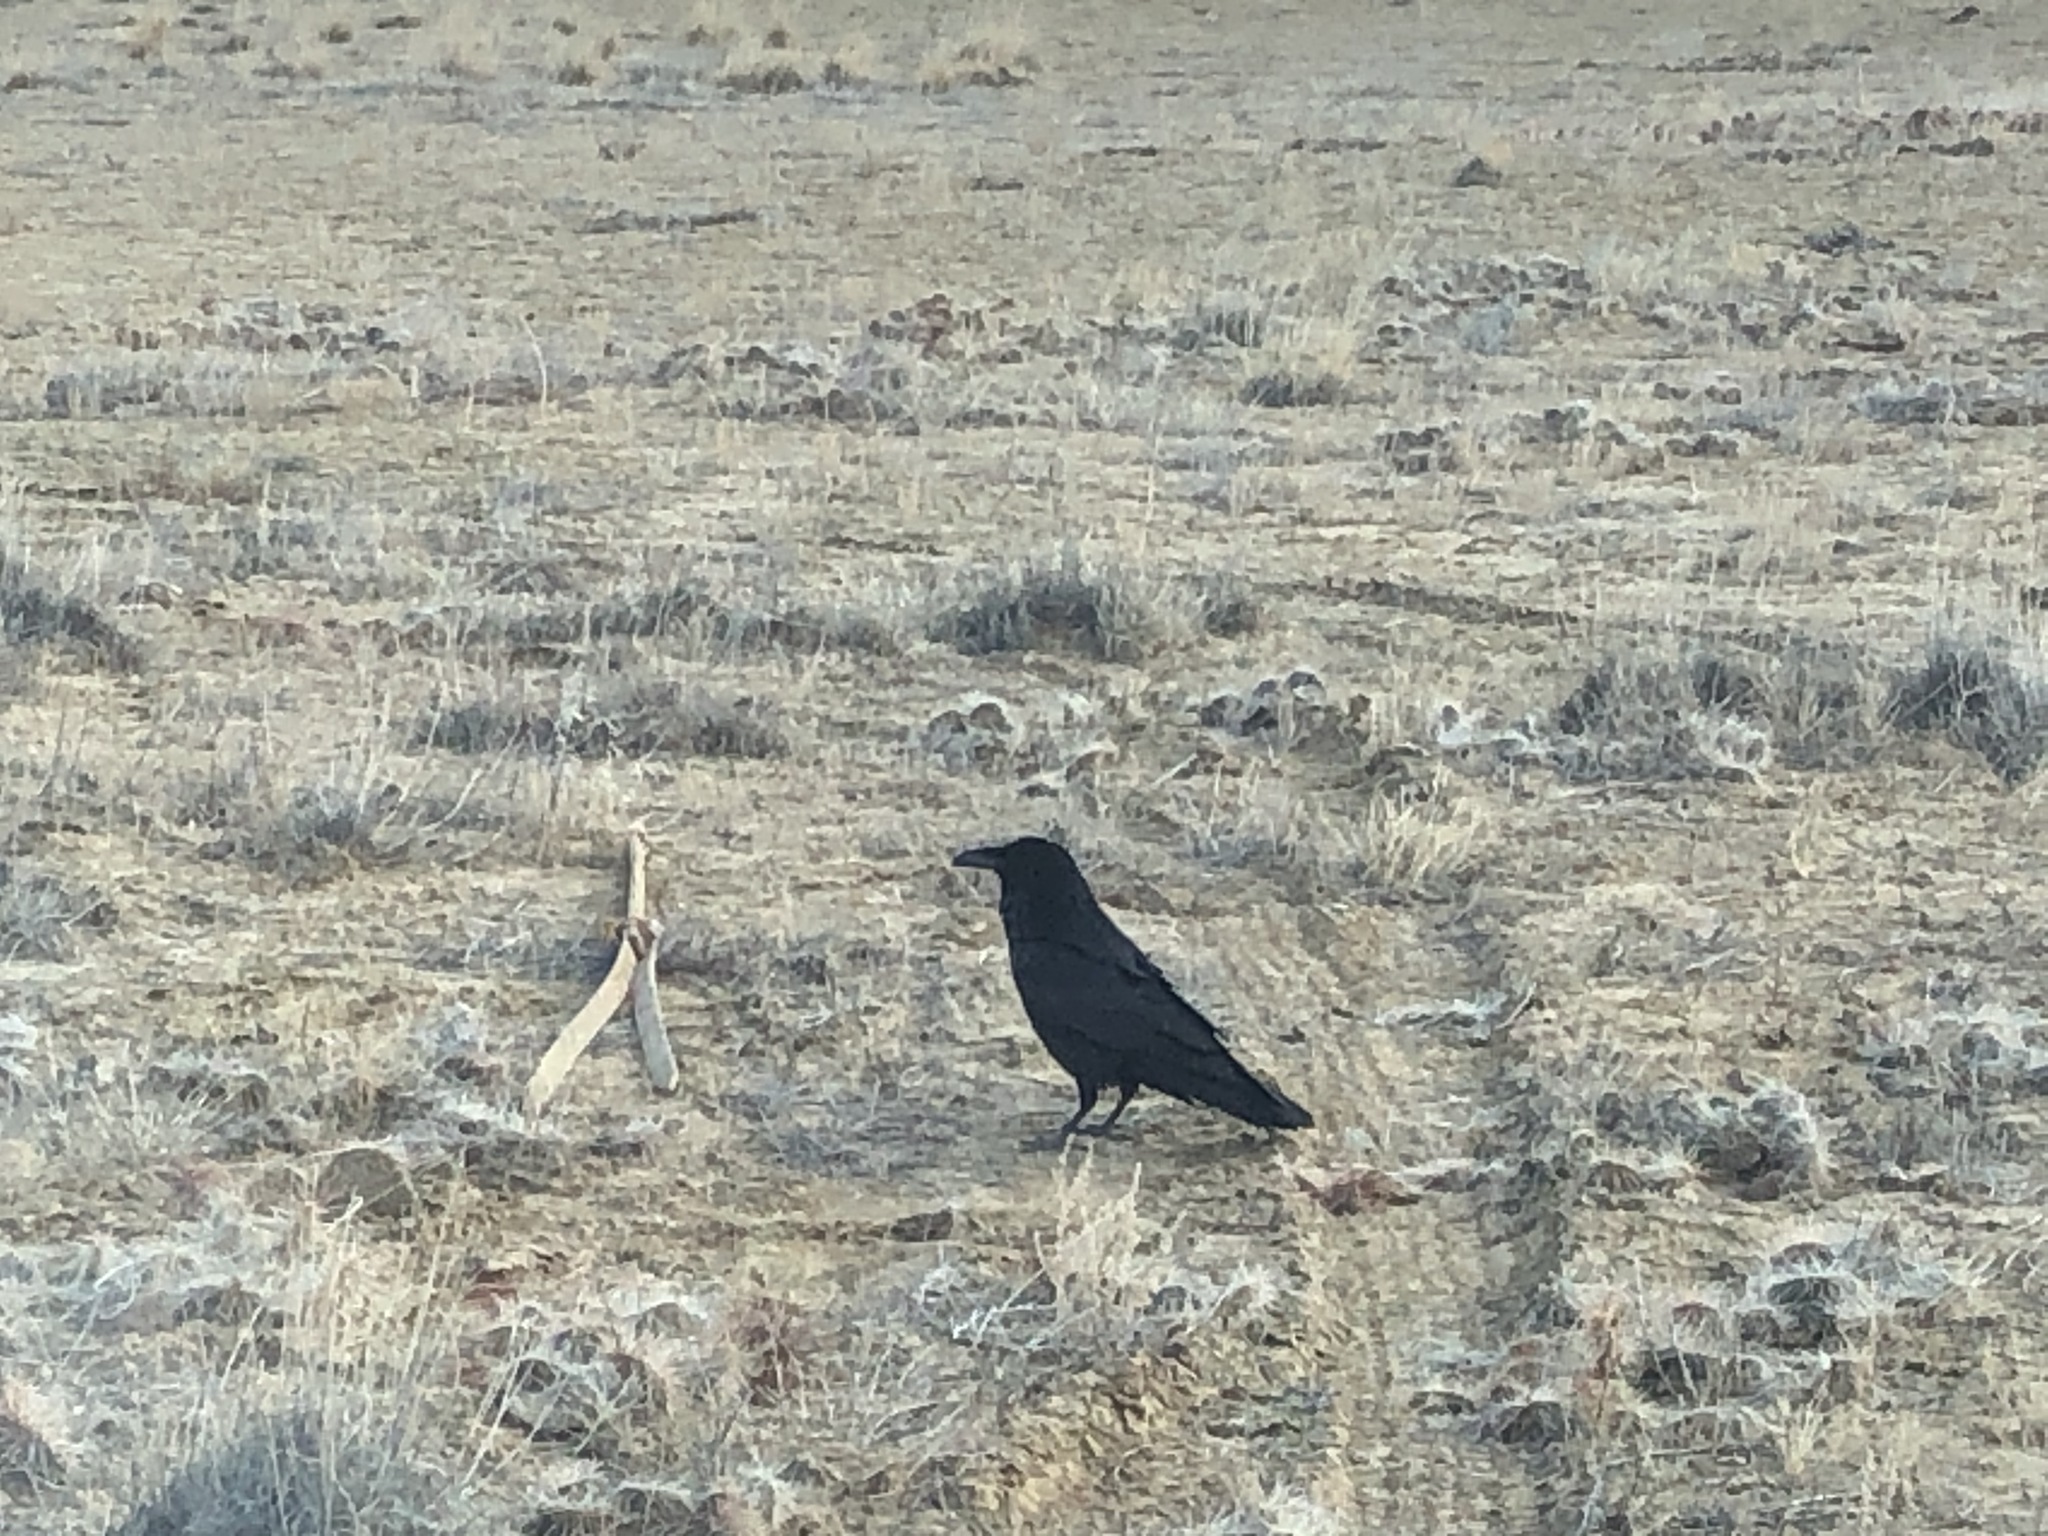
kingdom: Animalia
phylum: Chordata
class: Aves
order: Passeriformes
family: Corvidae
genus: Corvus
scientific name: Corvus corax
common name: Common raven
